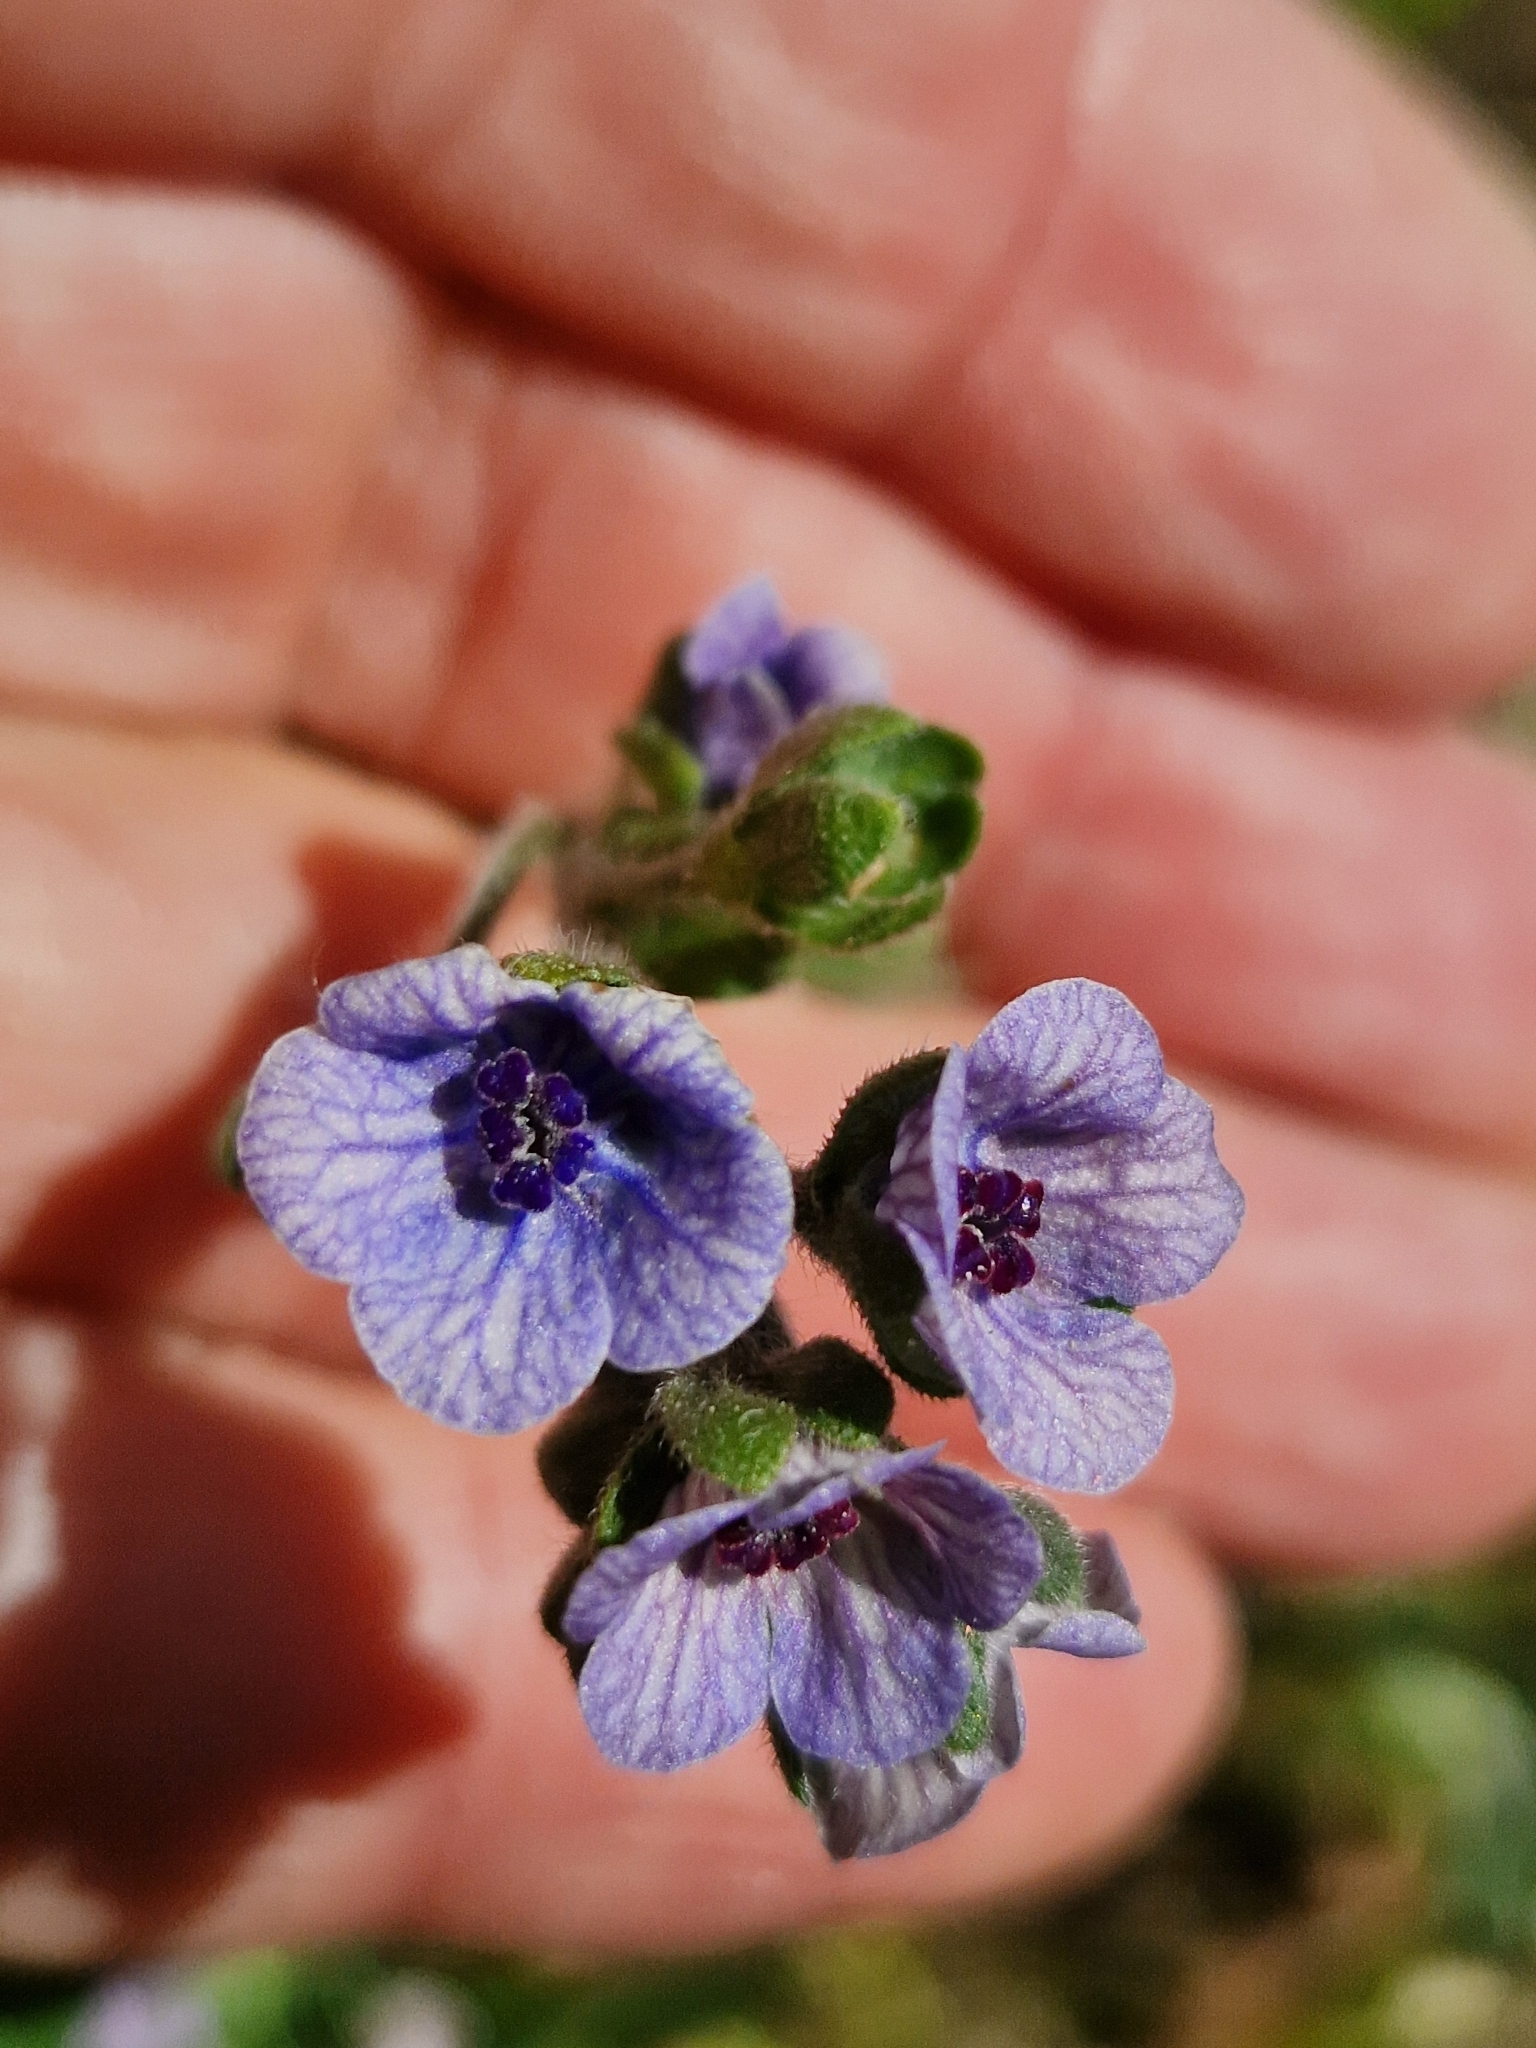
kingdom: Plantae
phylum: Tracheophyta
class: Magnoliopsida
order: Boraginales
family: Boraginaceae
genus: Cynoglossum
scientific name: Cynoglossum creticum
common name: Blue hound's tongue
